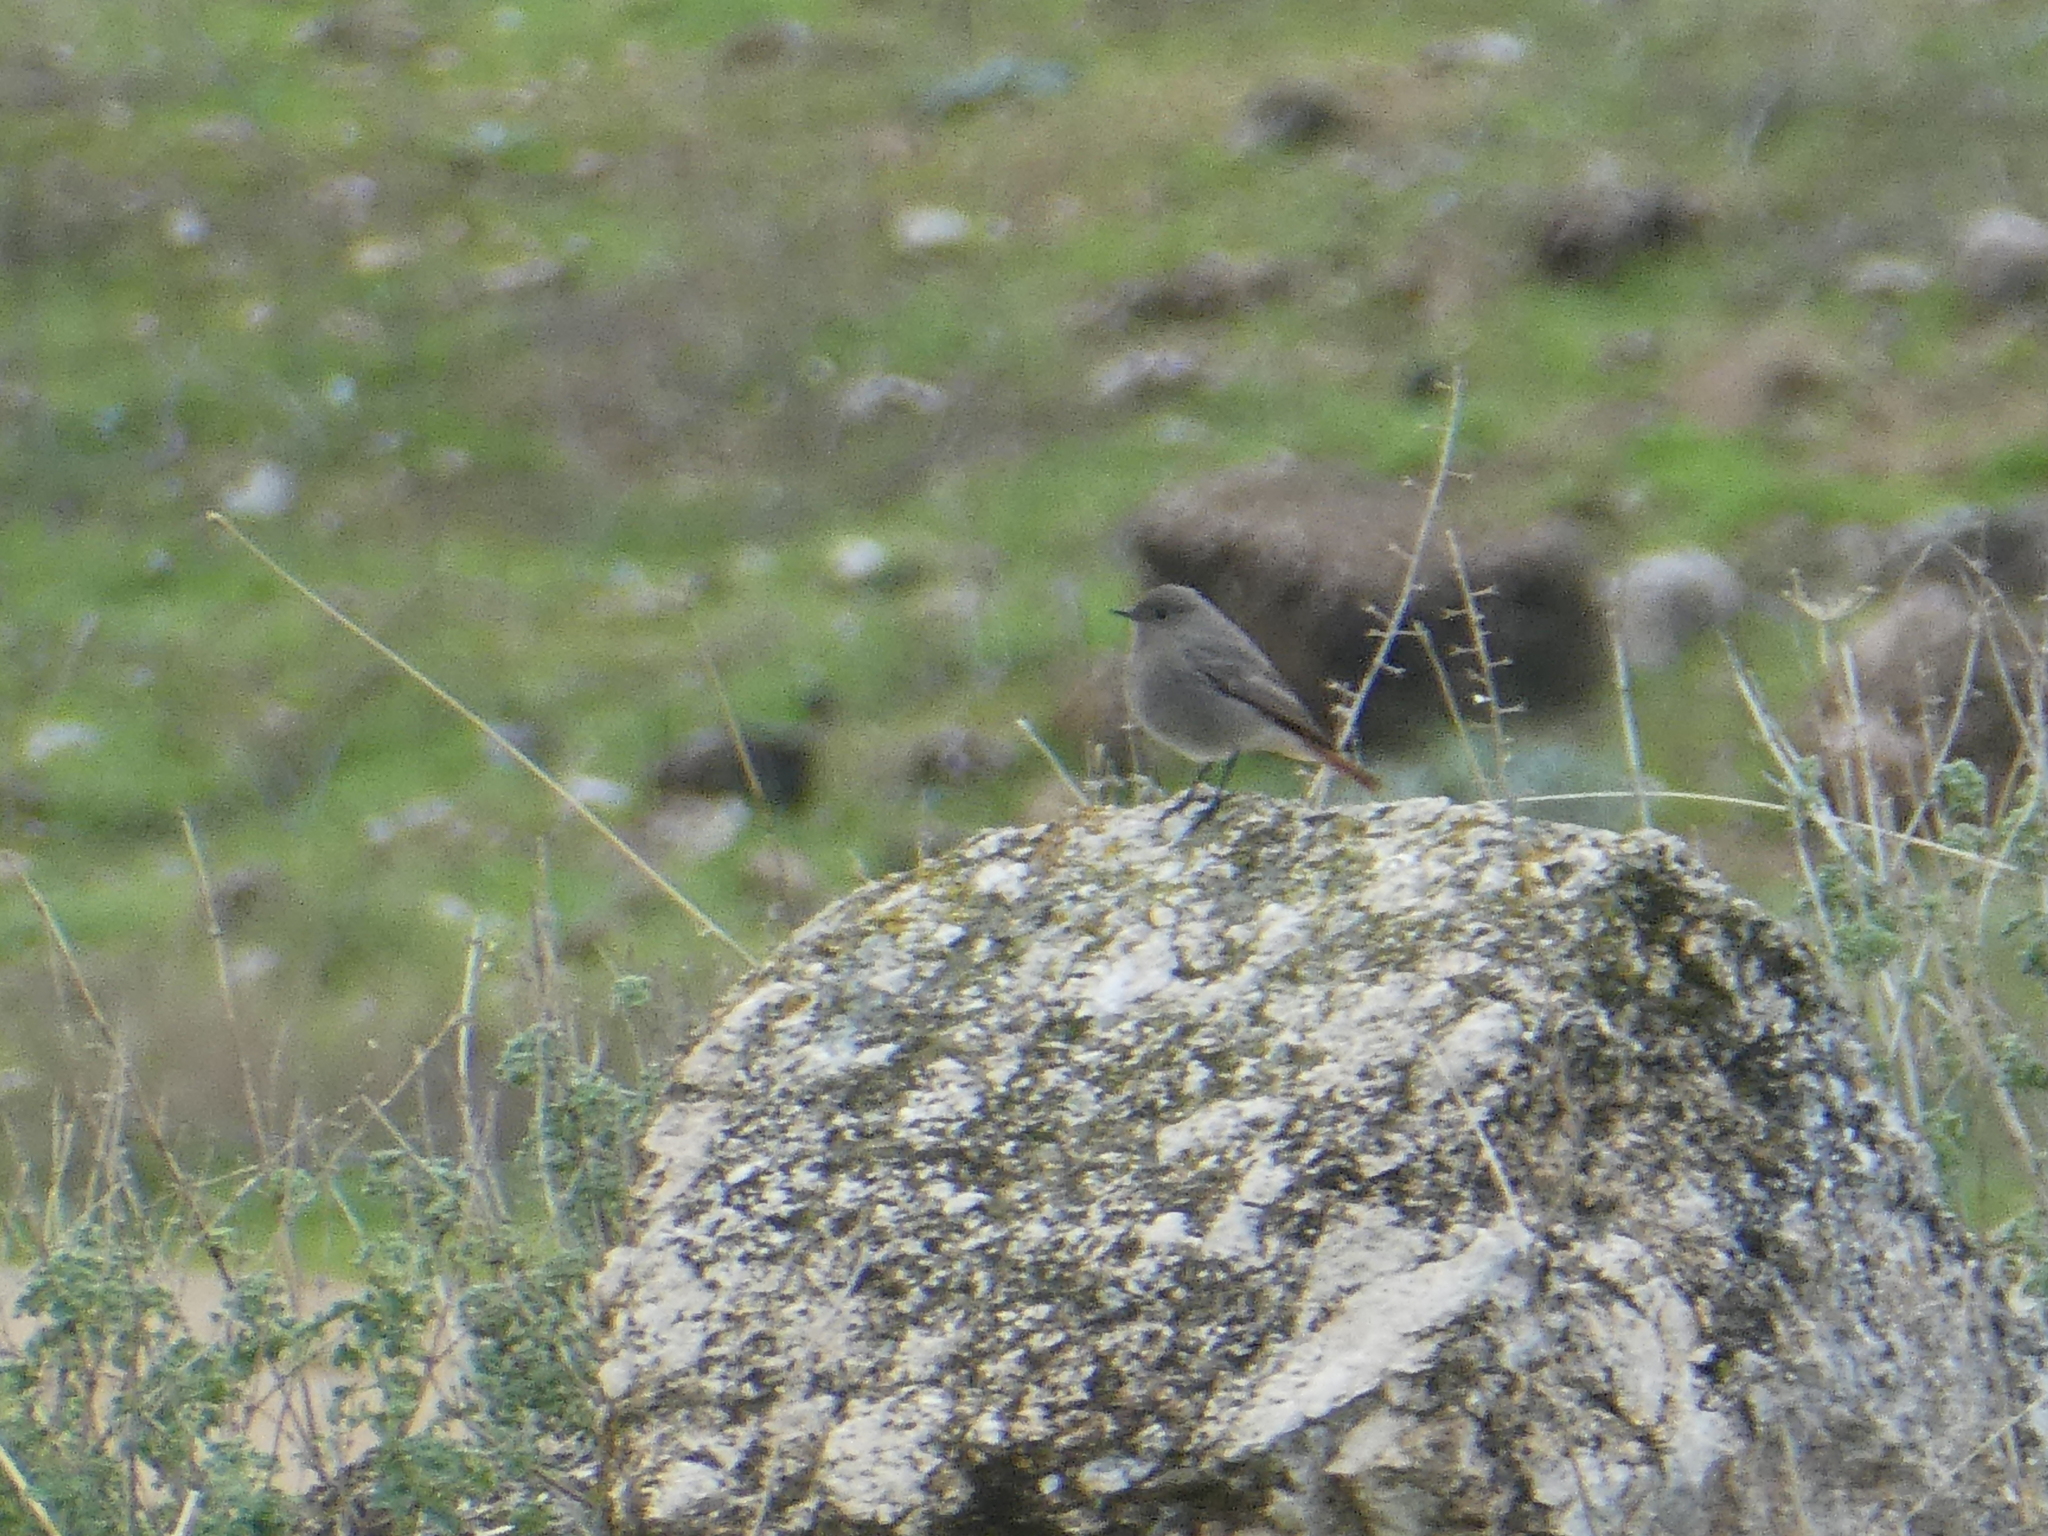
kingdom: Animalia
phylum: Chordata
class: Aves
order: Passeriformes
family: Muscicapidae
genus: Phoenicurus
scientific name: Phoenicurus ochruros
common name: Black redstart
